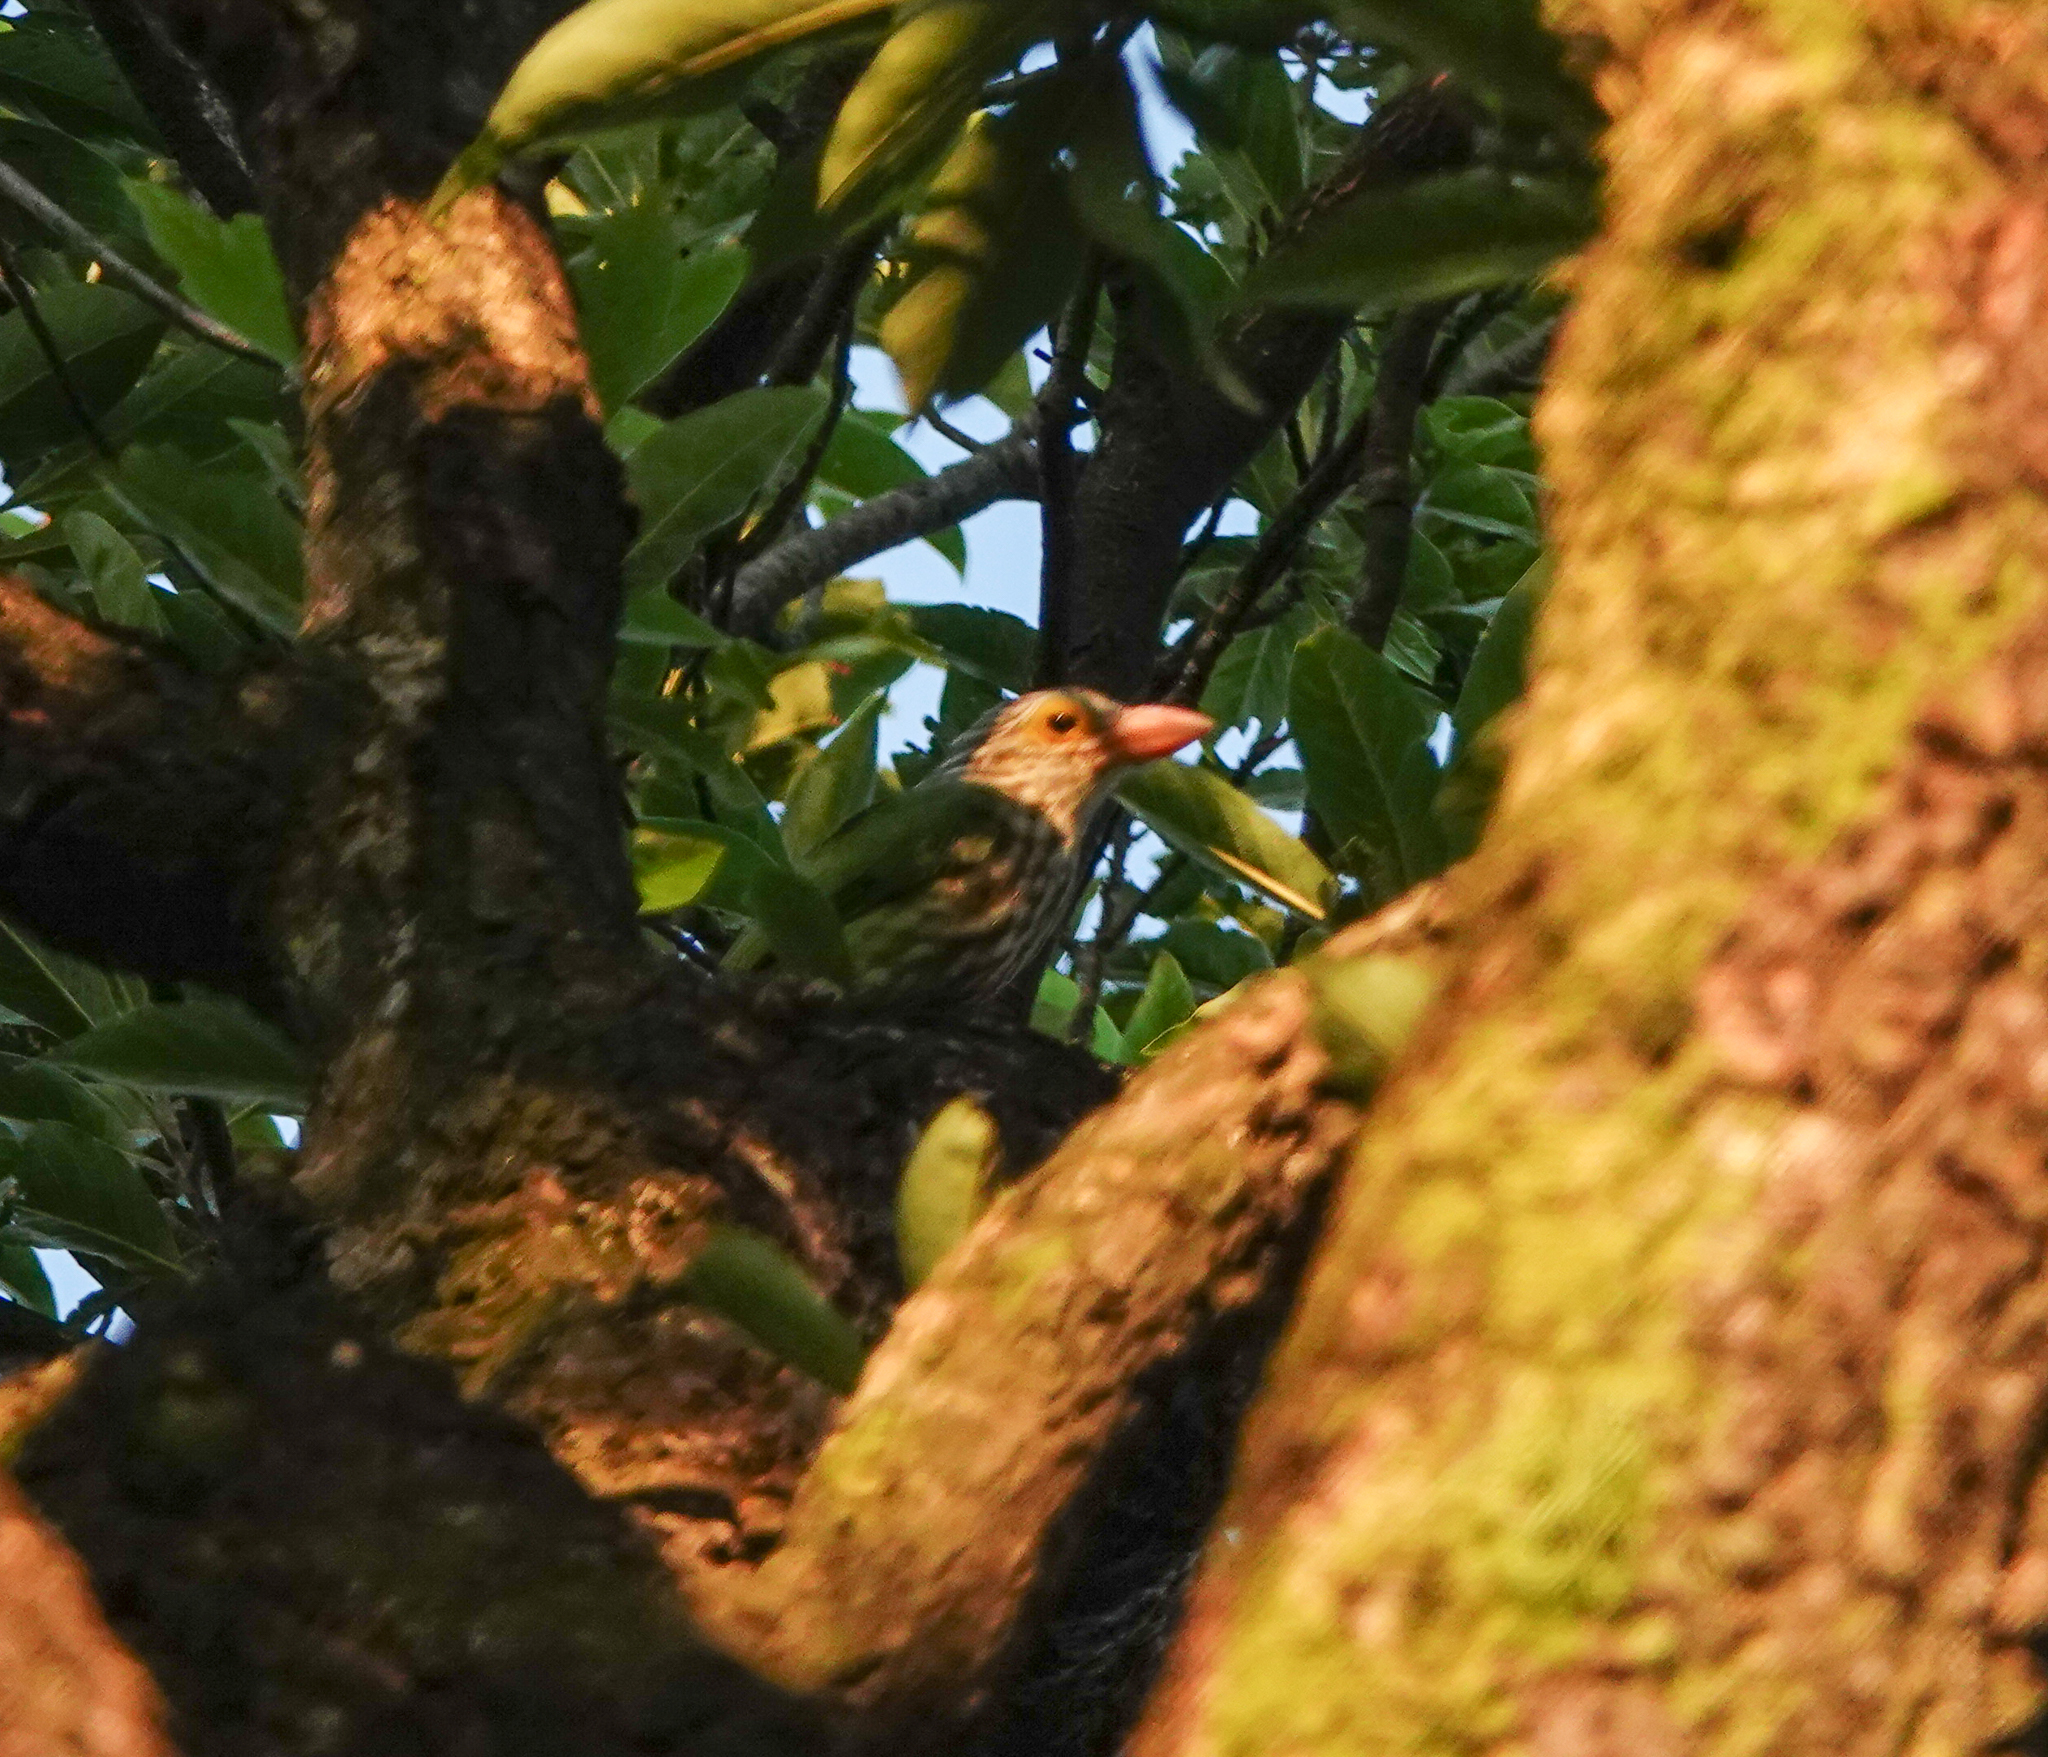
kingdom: Animalia
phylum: Chordata
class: Aves
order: Piciformes
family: Megalaimidae
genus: Psilopogon
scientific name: Psilopogon lineatus
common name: Lineated barbet
